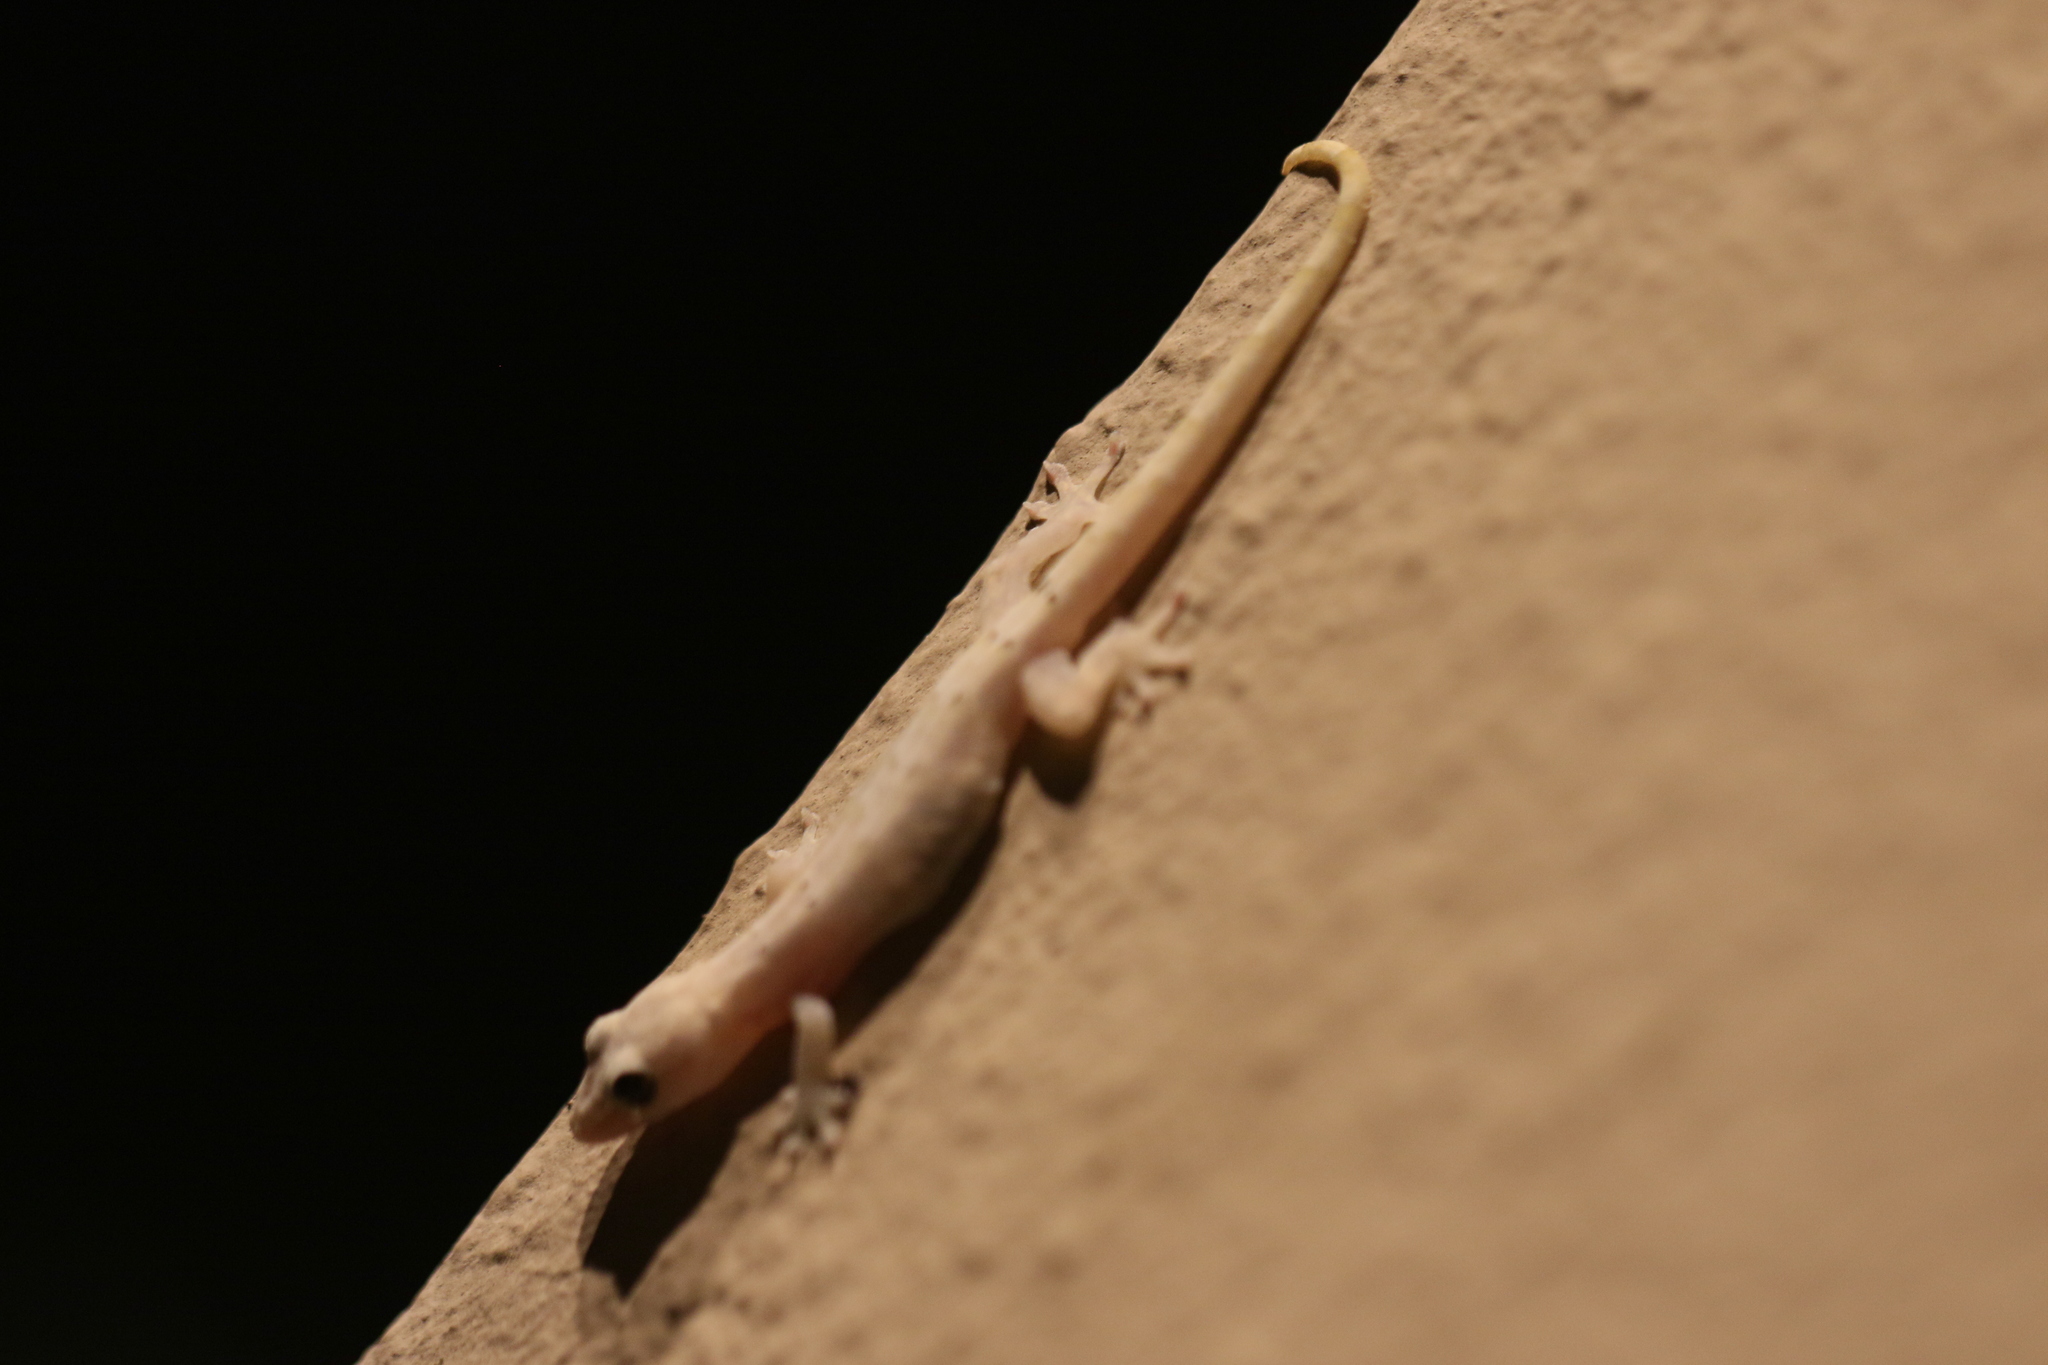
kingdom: Animalia
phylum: Chordata
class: Squamata
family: Gekkonidae
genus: Lepidodactylus
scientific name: Lepidodactylus lugubris
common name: Mourning gecko
